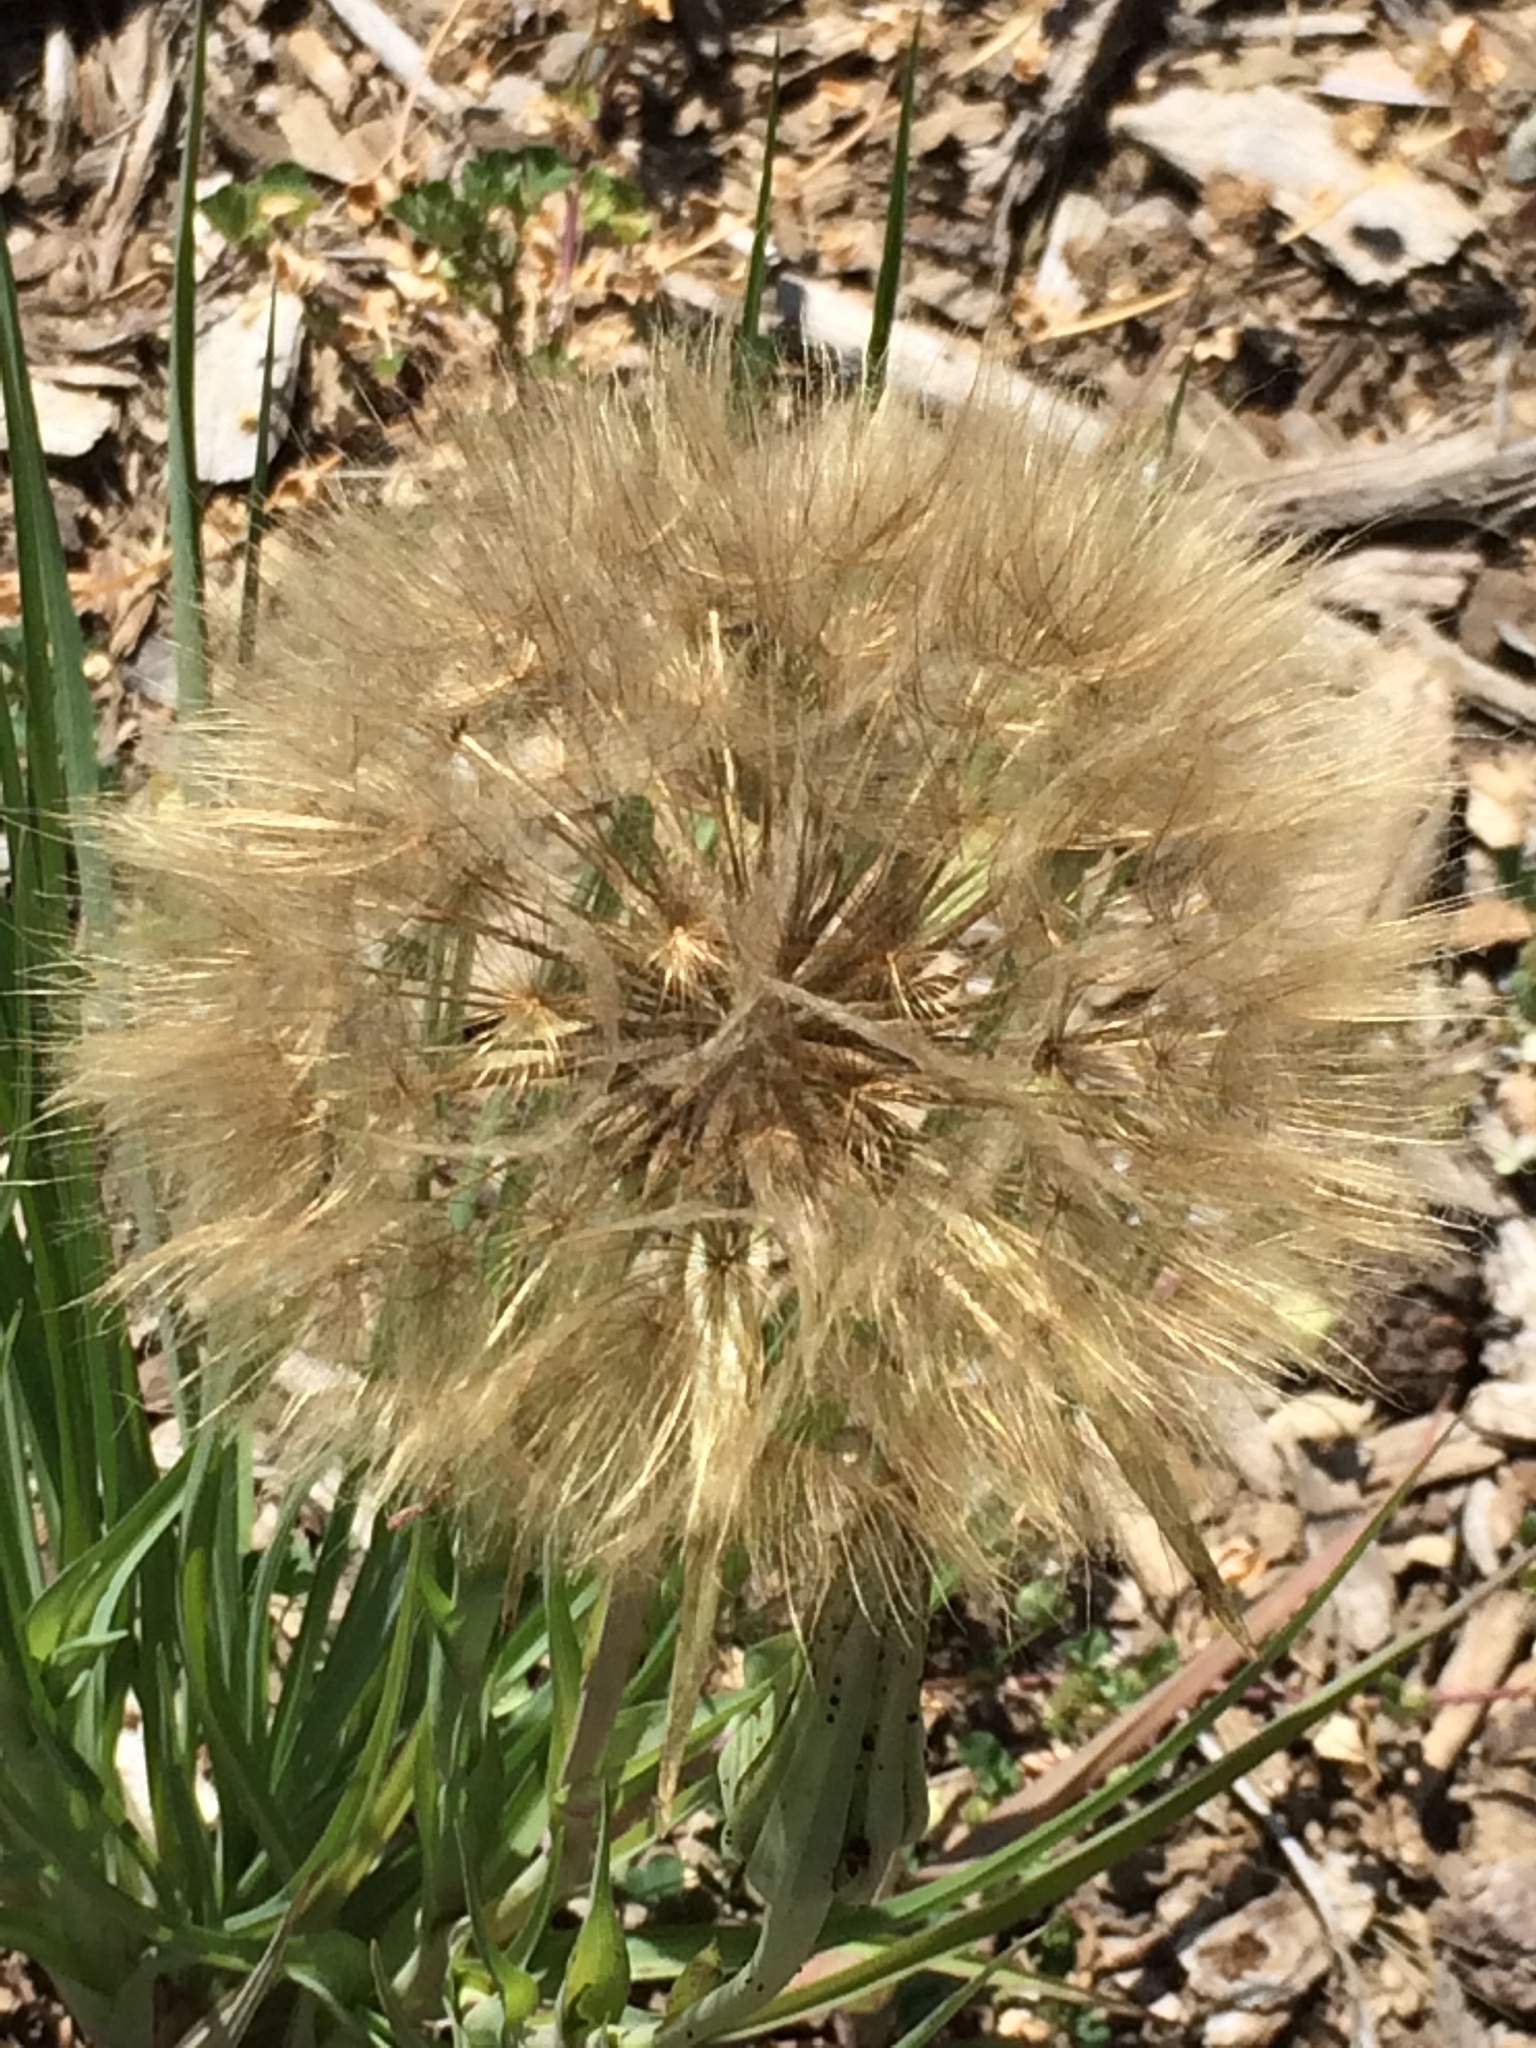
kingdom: Plantae
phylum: Tracheophyta
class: Magnoliopsida
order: Asterales
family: Asteraceae
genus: Tragopogon
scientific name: Tragopogon porrifolius
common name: Salsify
